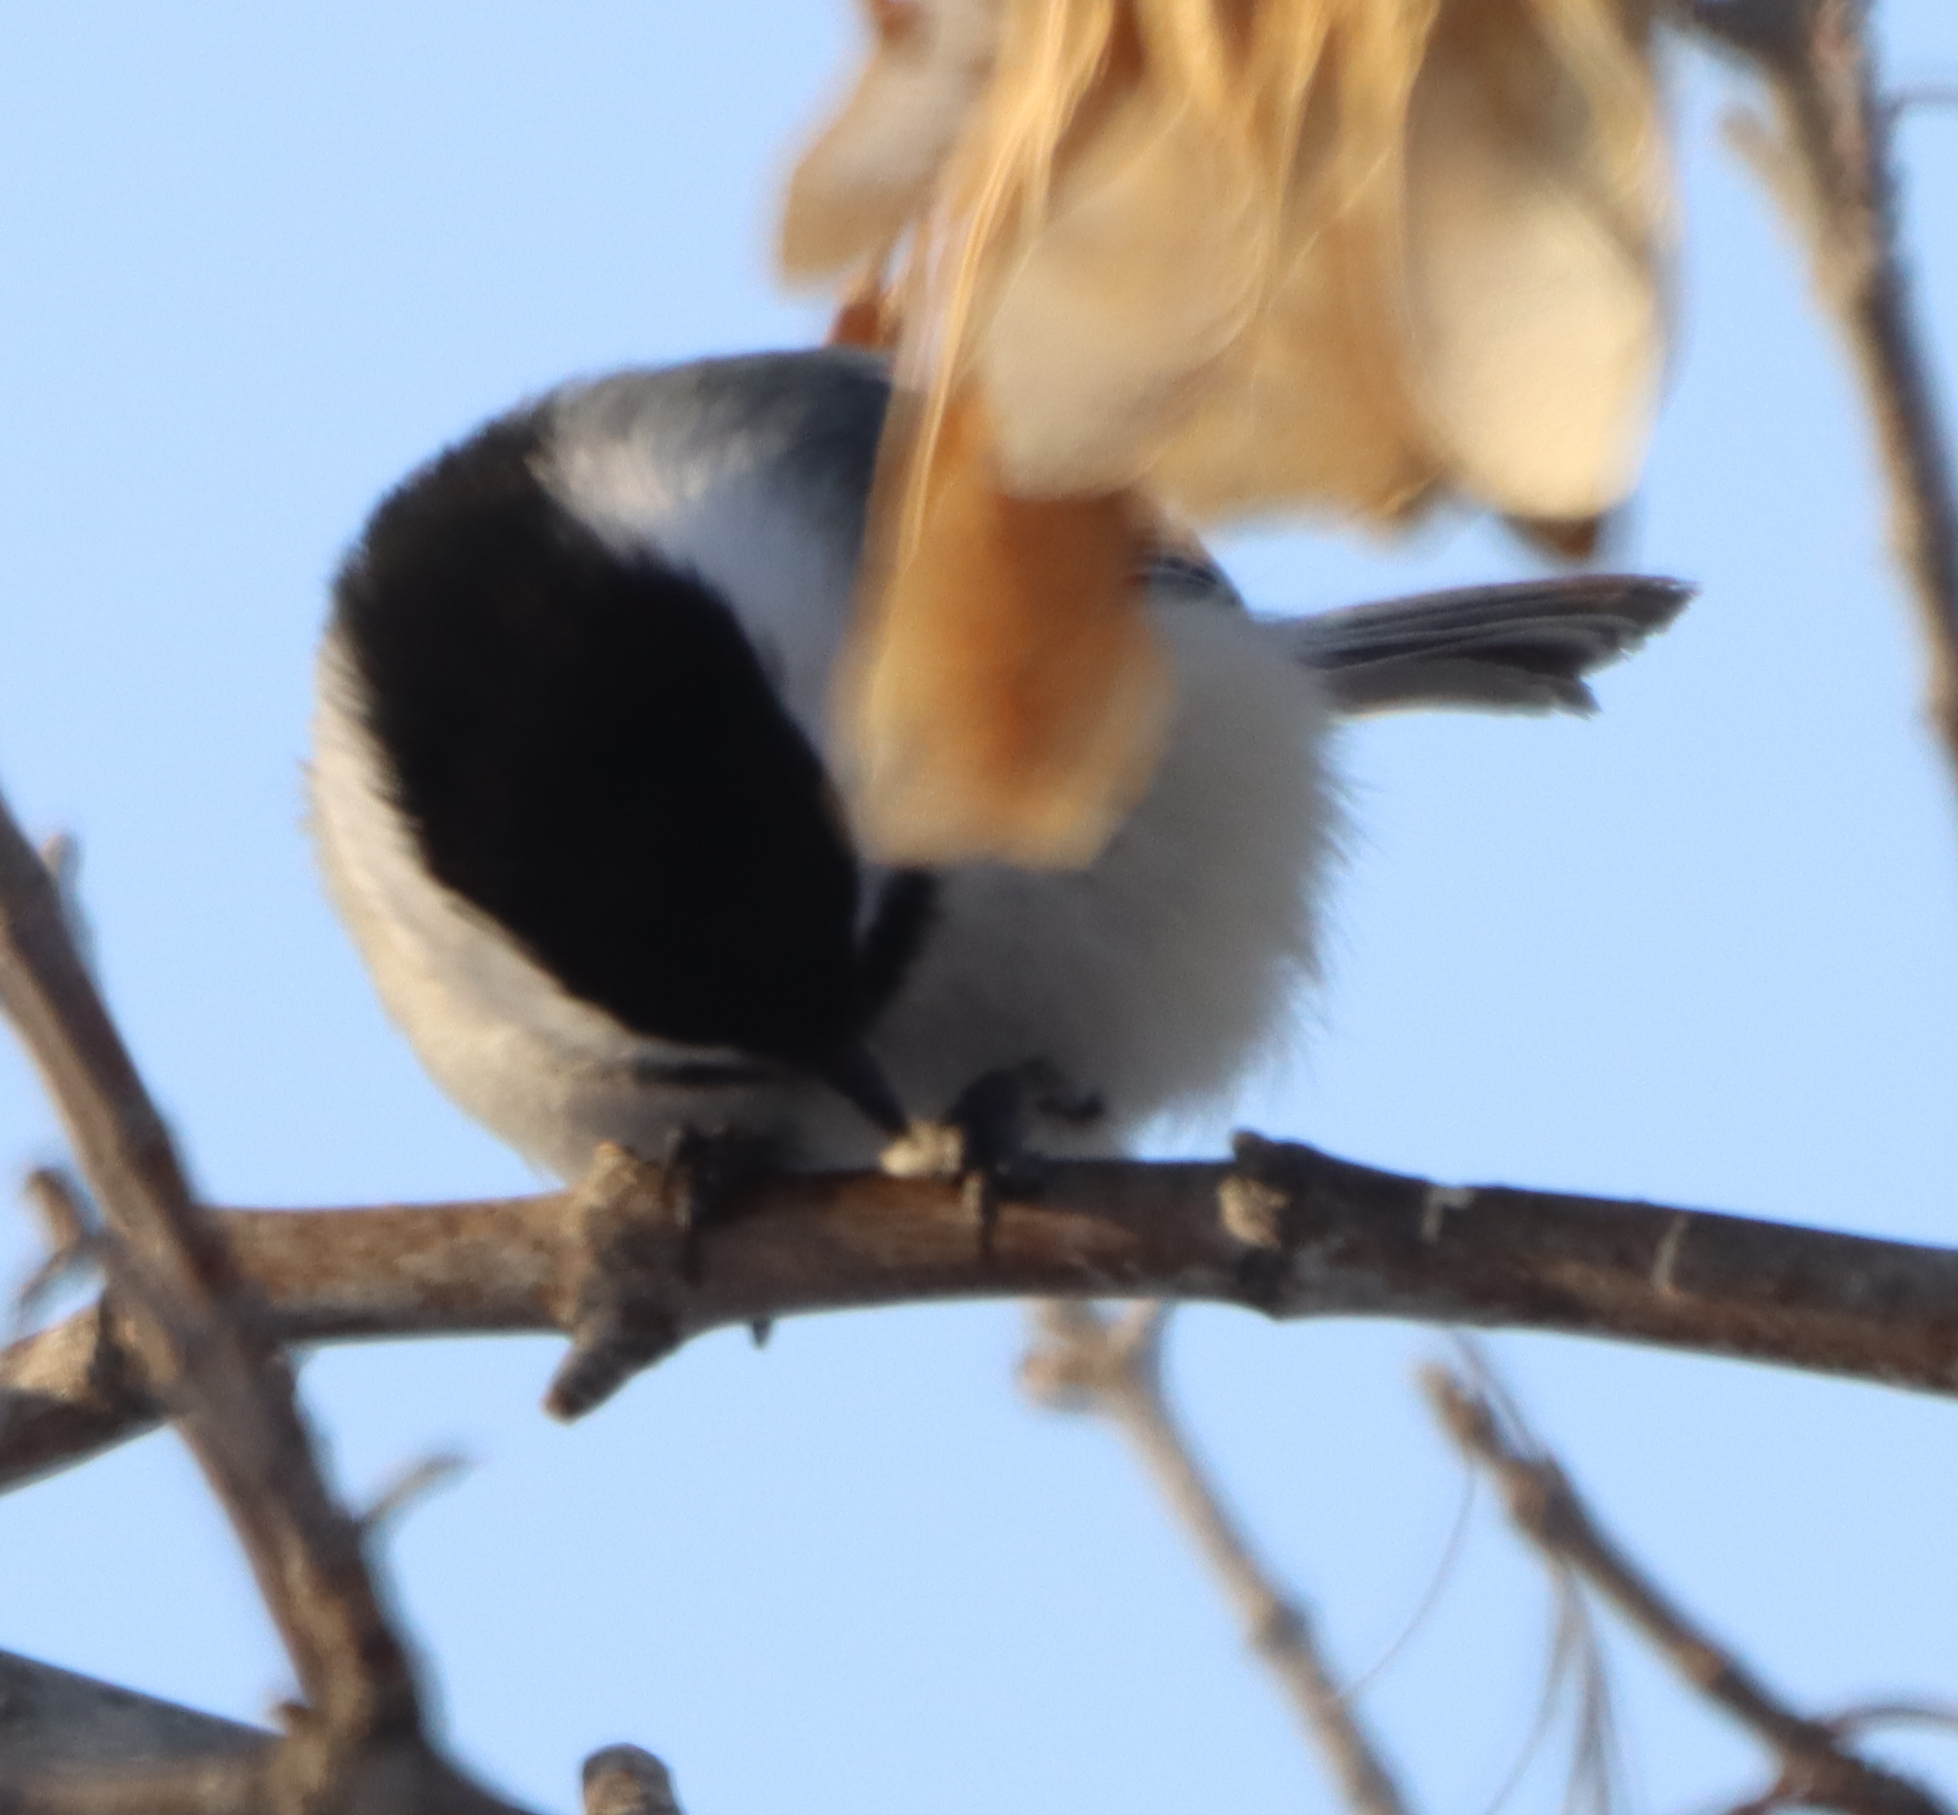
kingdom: Animalia
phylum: Chordata
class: Aves
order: Passeriformes
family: Paridae
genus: Poecile
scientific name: Poecile atricapillus
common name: Black-capped chickadee
